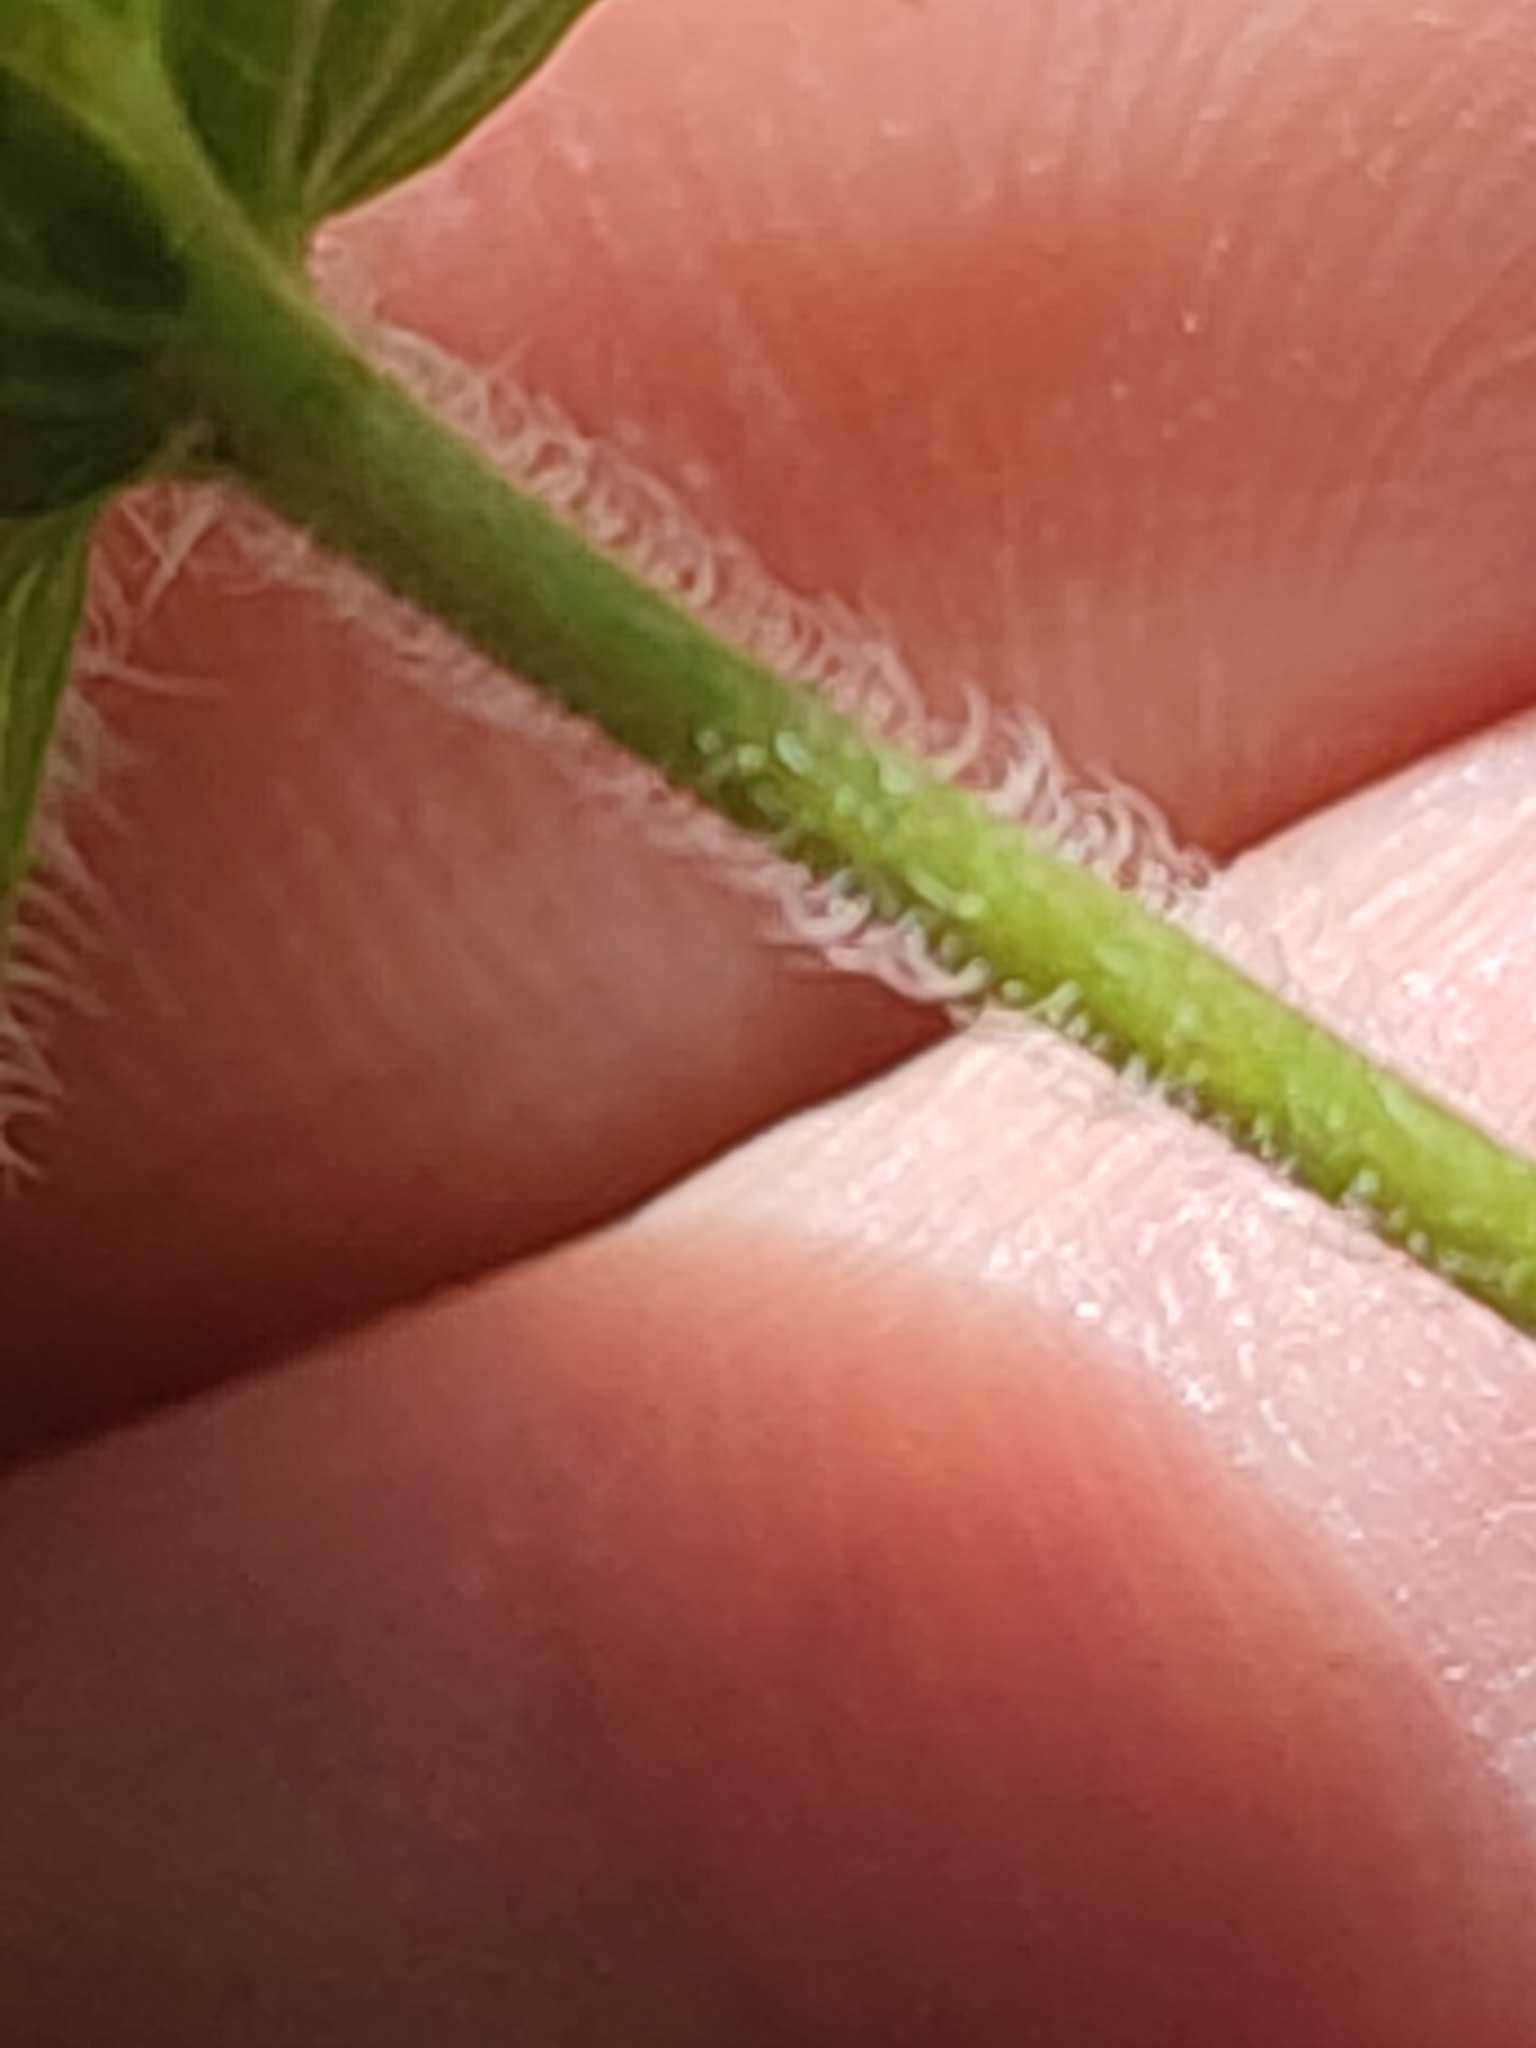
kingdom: Plantae
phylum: Tracheophyta
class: Magnoliopsida
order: Lamiales
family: Plantaginaceae
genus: Veronica
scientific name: Veronica chamaedrys
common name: Germander speedwell
